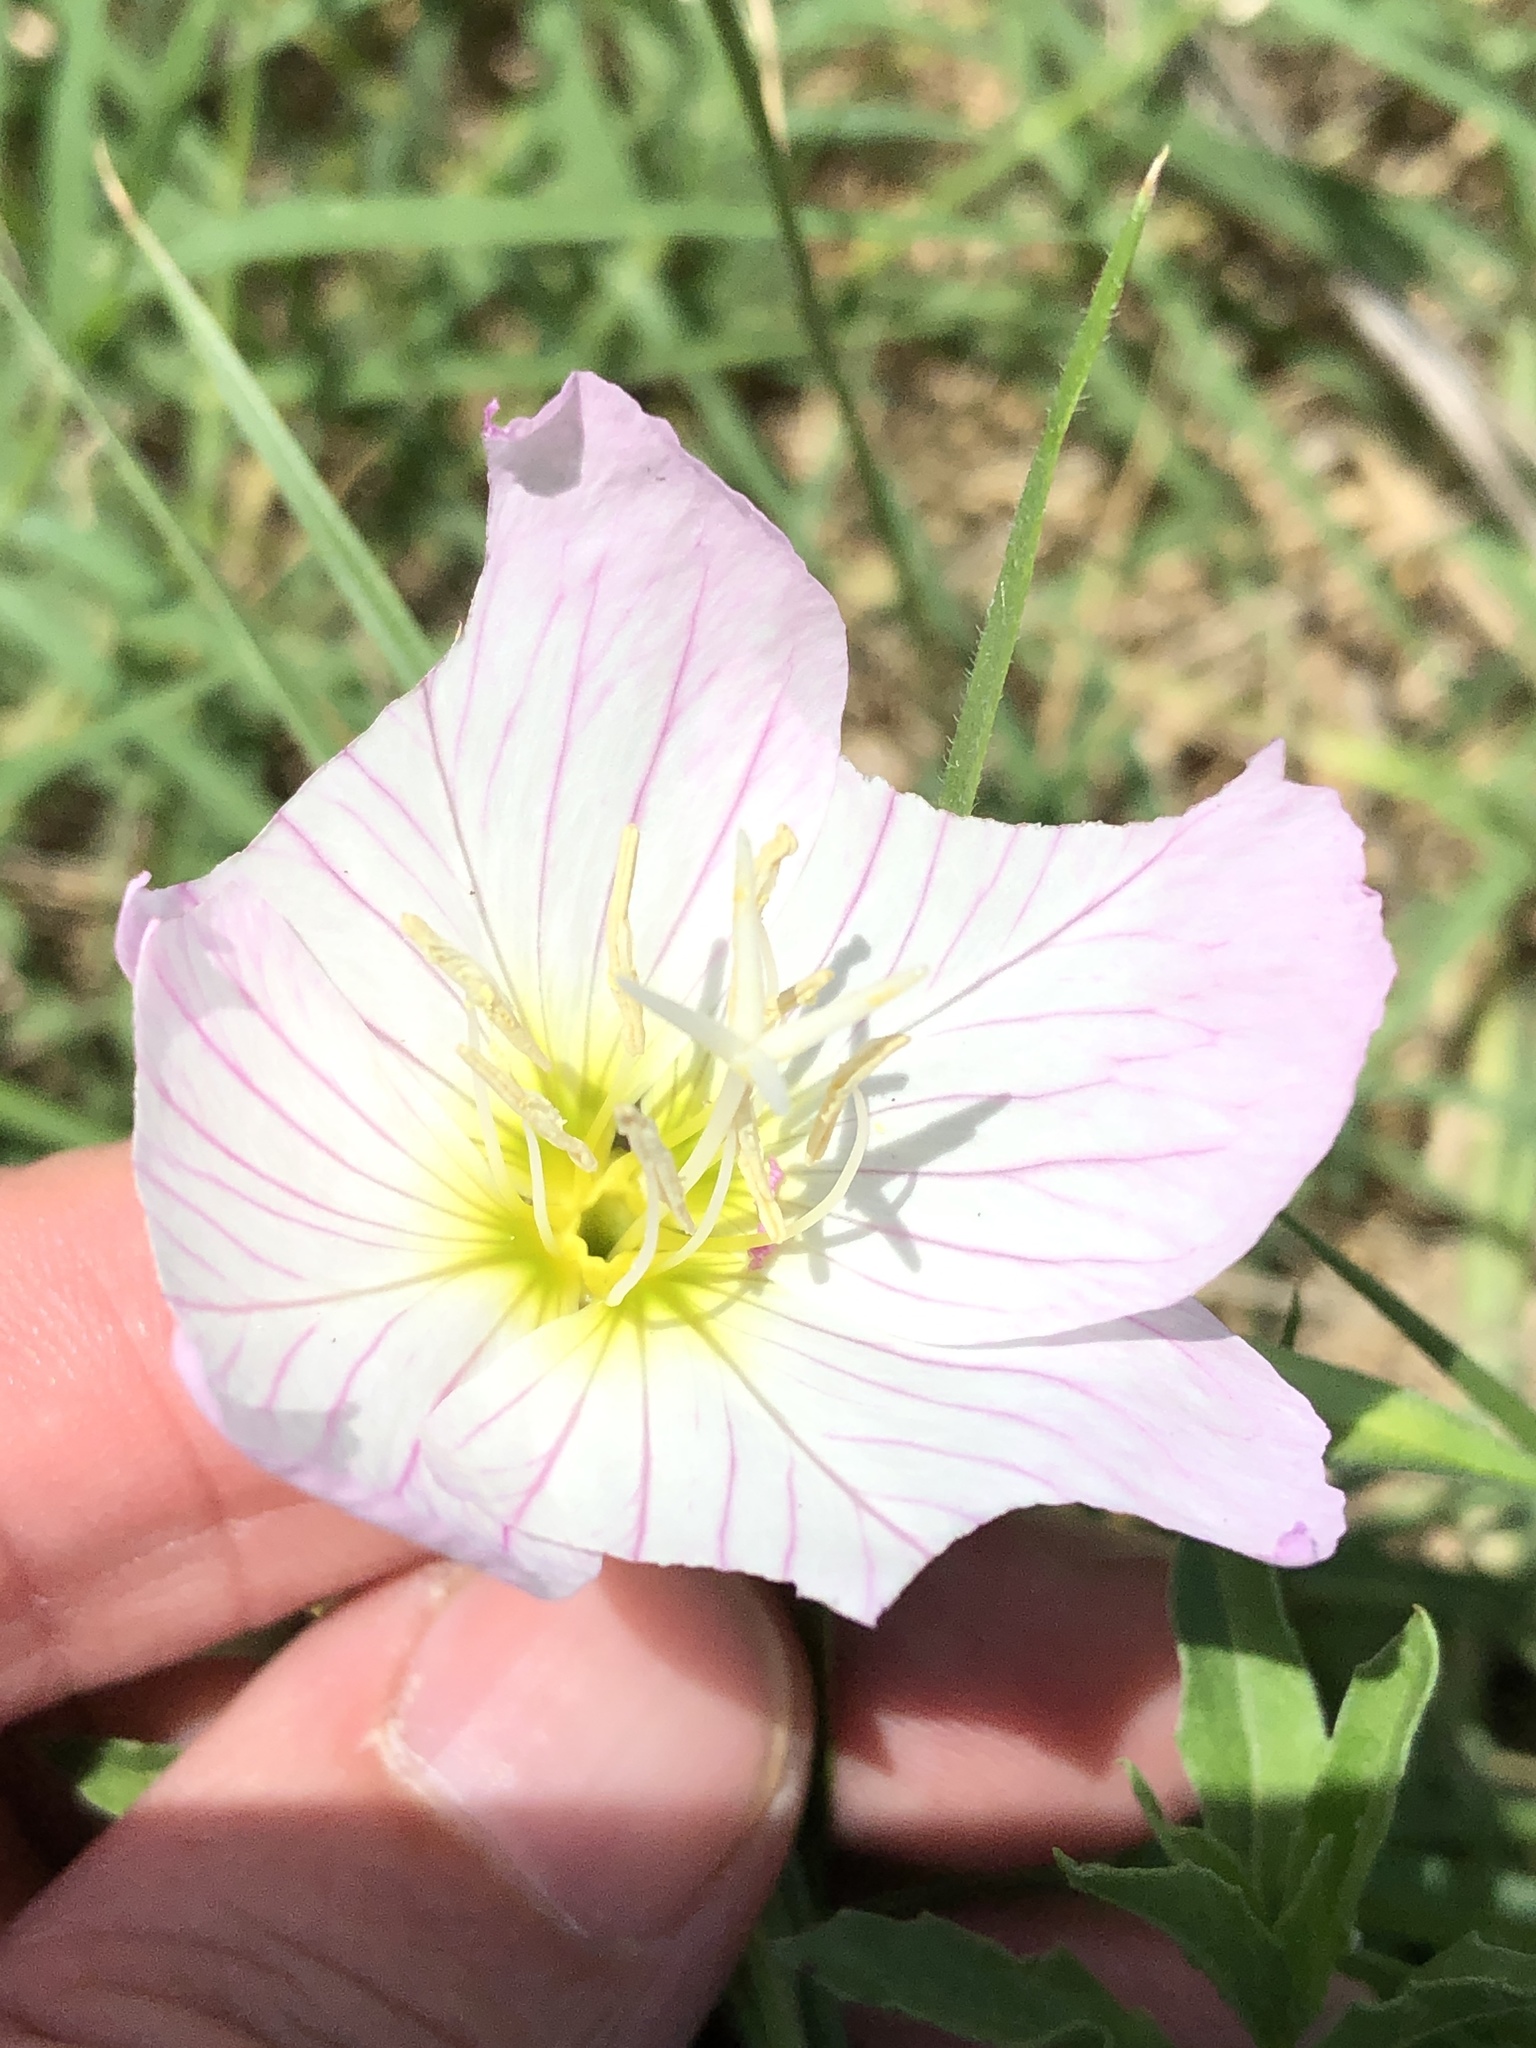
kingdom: Plantae
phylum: Tracheophyta
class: Magnoliopsida
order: Myrtales
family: Onagraceae
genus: Oenothera
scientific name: Oenothera speciosa
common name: White evening-primrose
